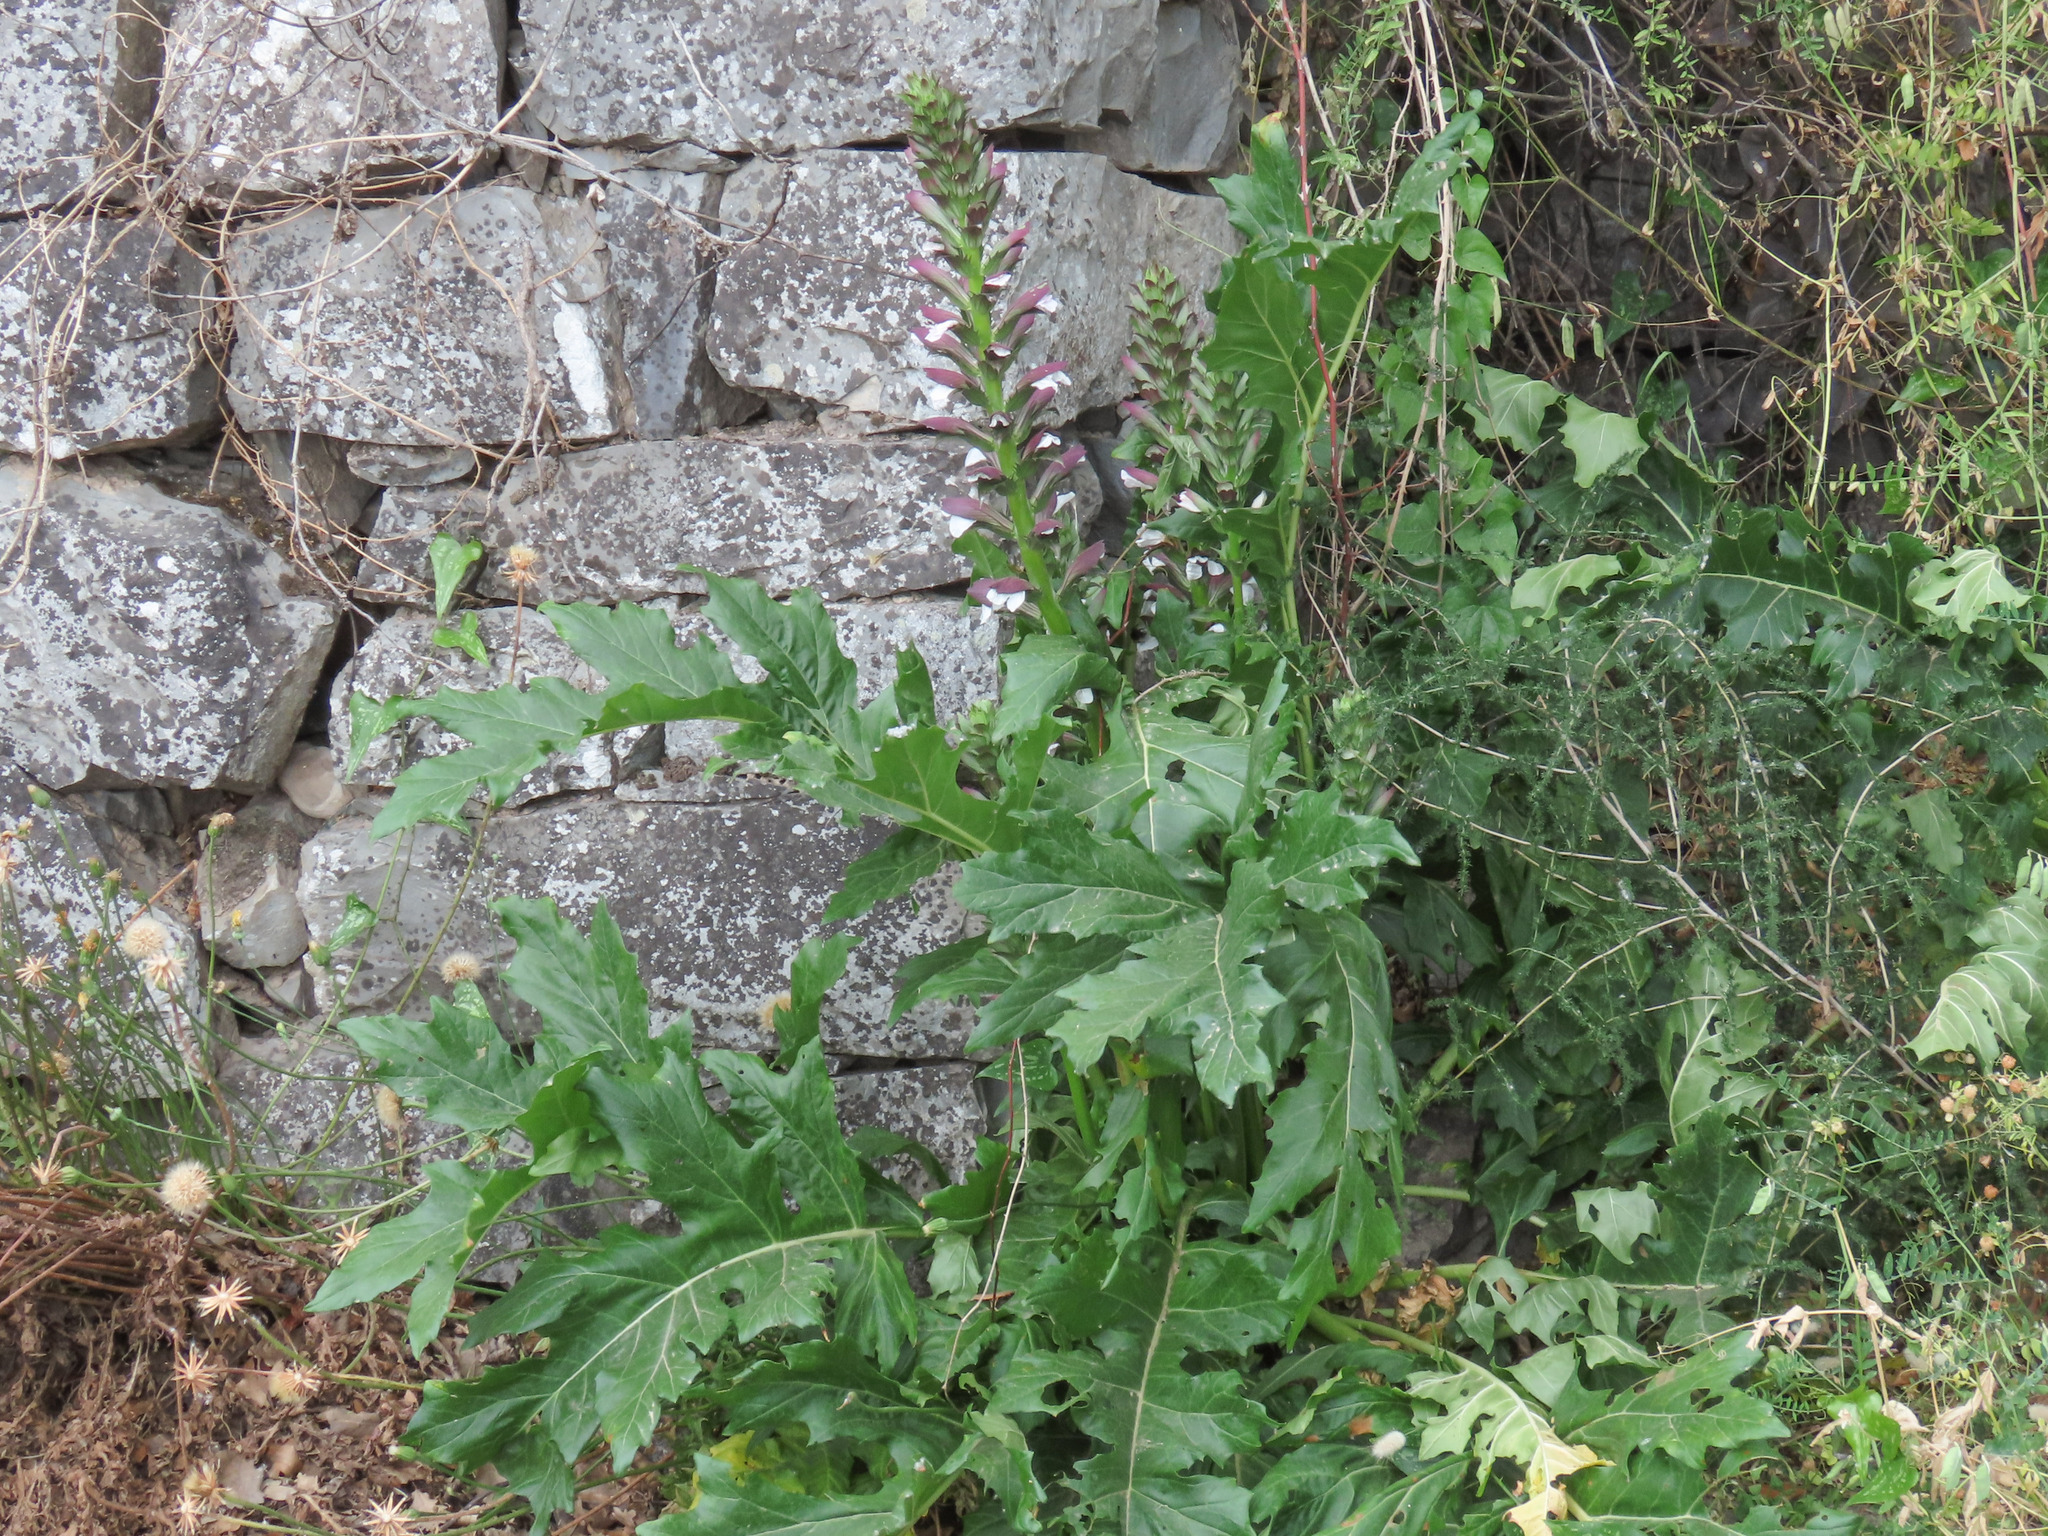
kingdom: Plantae
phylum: Tracheophyta
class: Magnoliopsida
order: Lamiales
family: Acanthaceae
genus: Acanthus
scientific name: Acanthus mollis
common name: Bear's-breech
